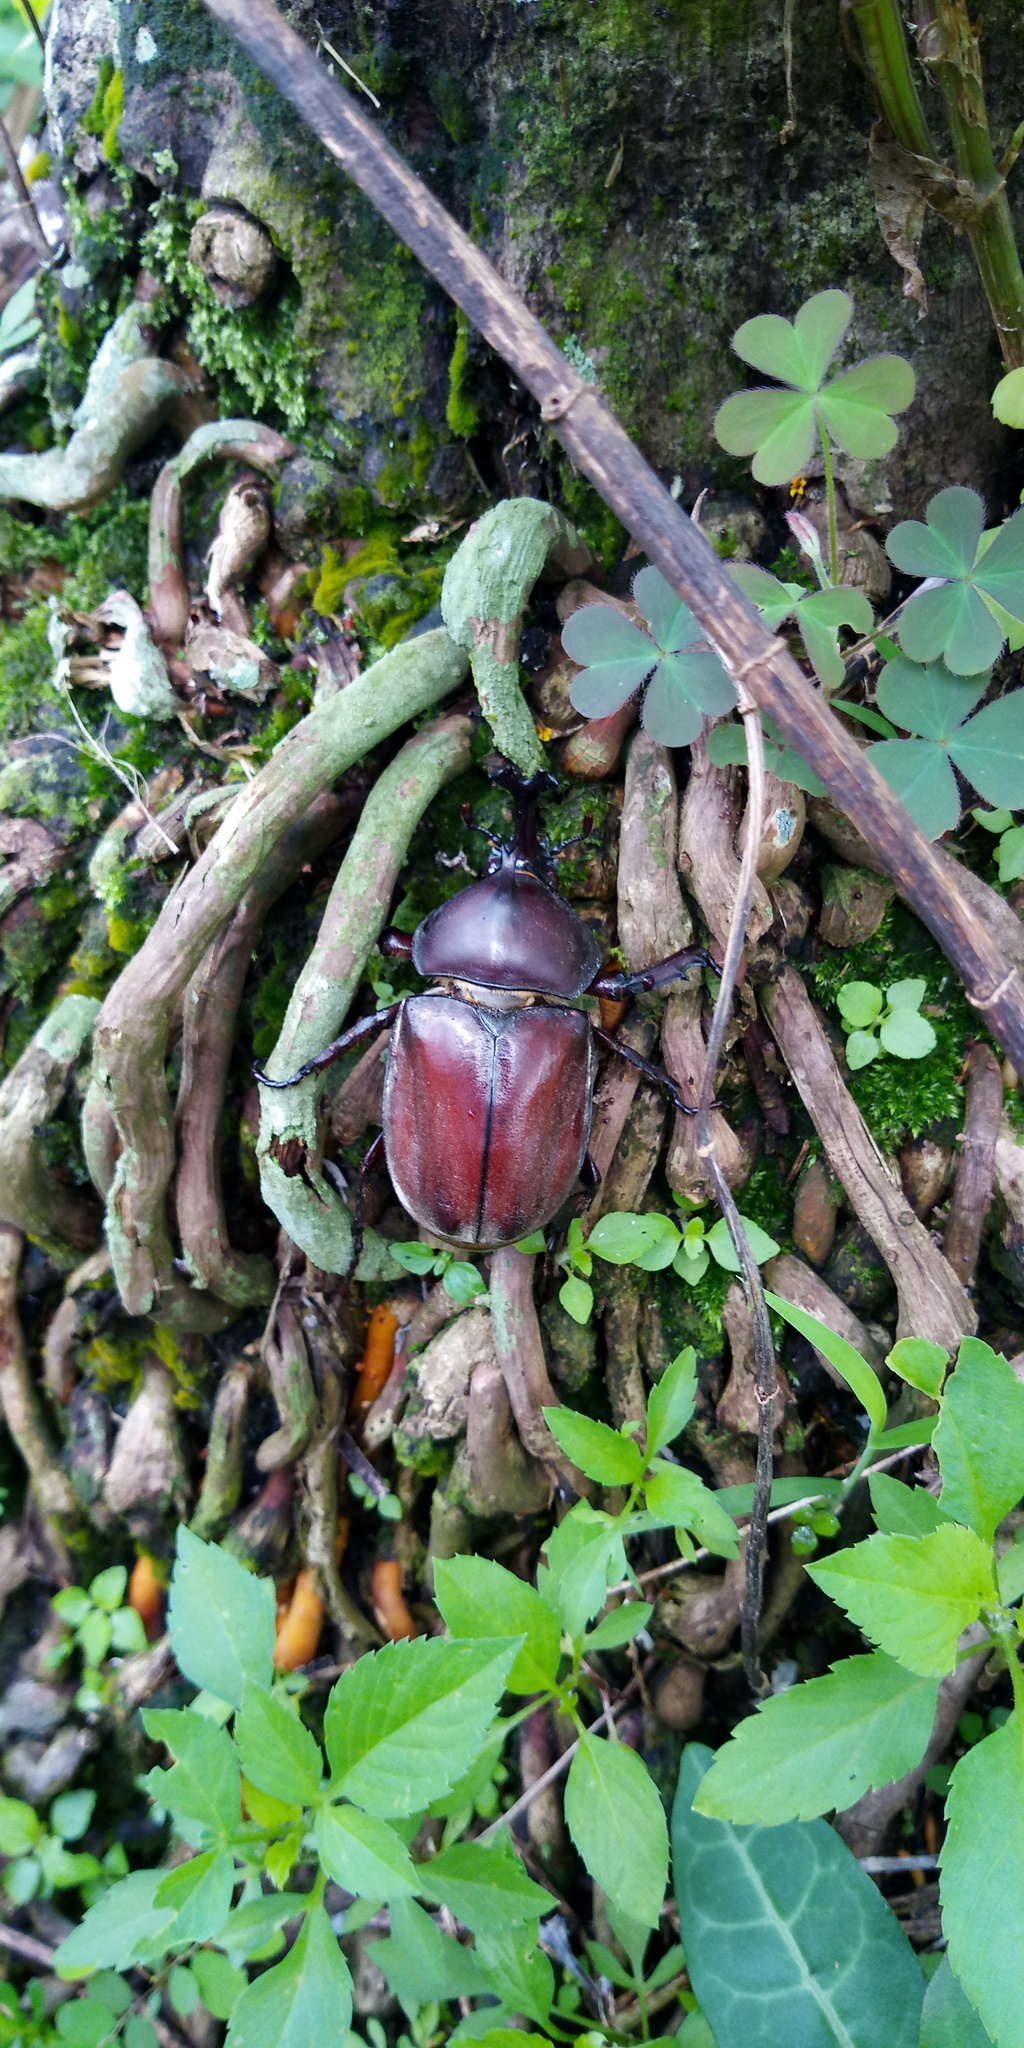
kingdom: Animalia
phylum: Arthropoda
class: Insecta
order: Coleoptera
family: Scarabaeidae
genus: Trypoxylus
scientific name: Trypoxylus dichotomus
